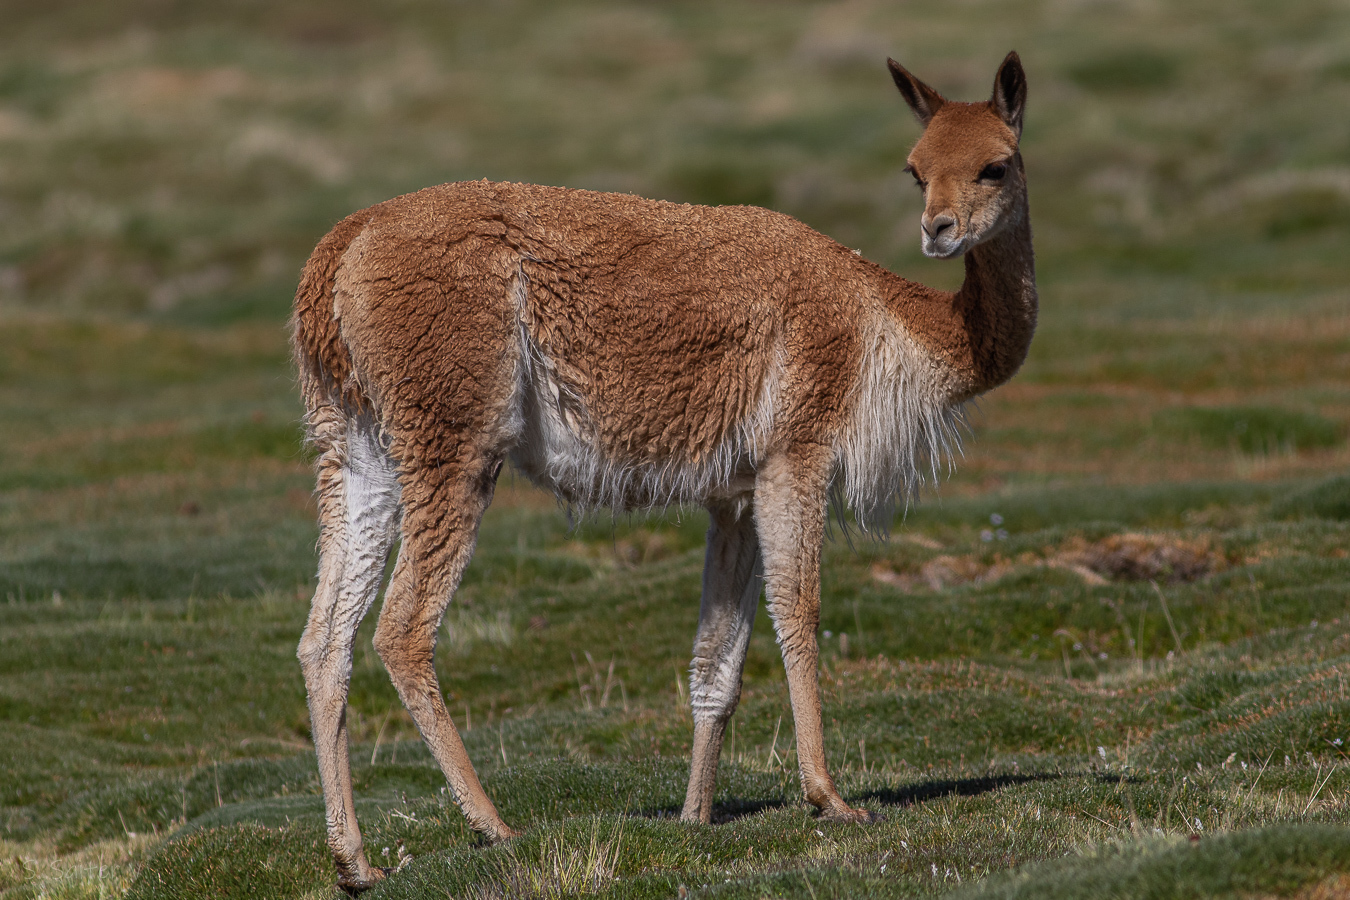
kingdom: Animalia
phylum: Chordata
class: Mammalia
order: Artiodactyla
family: Camelidae
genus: Vicugna
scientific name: Vicugna vicugna
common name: Vicugna
